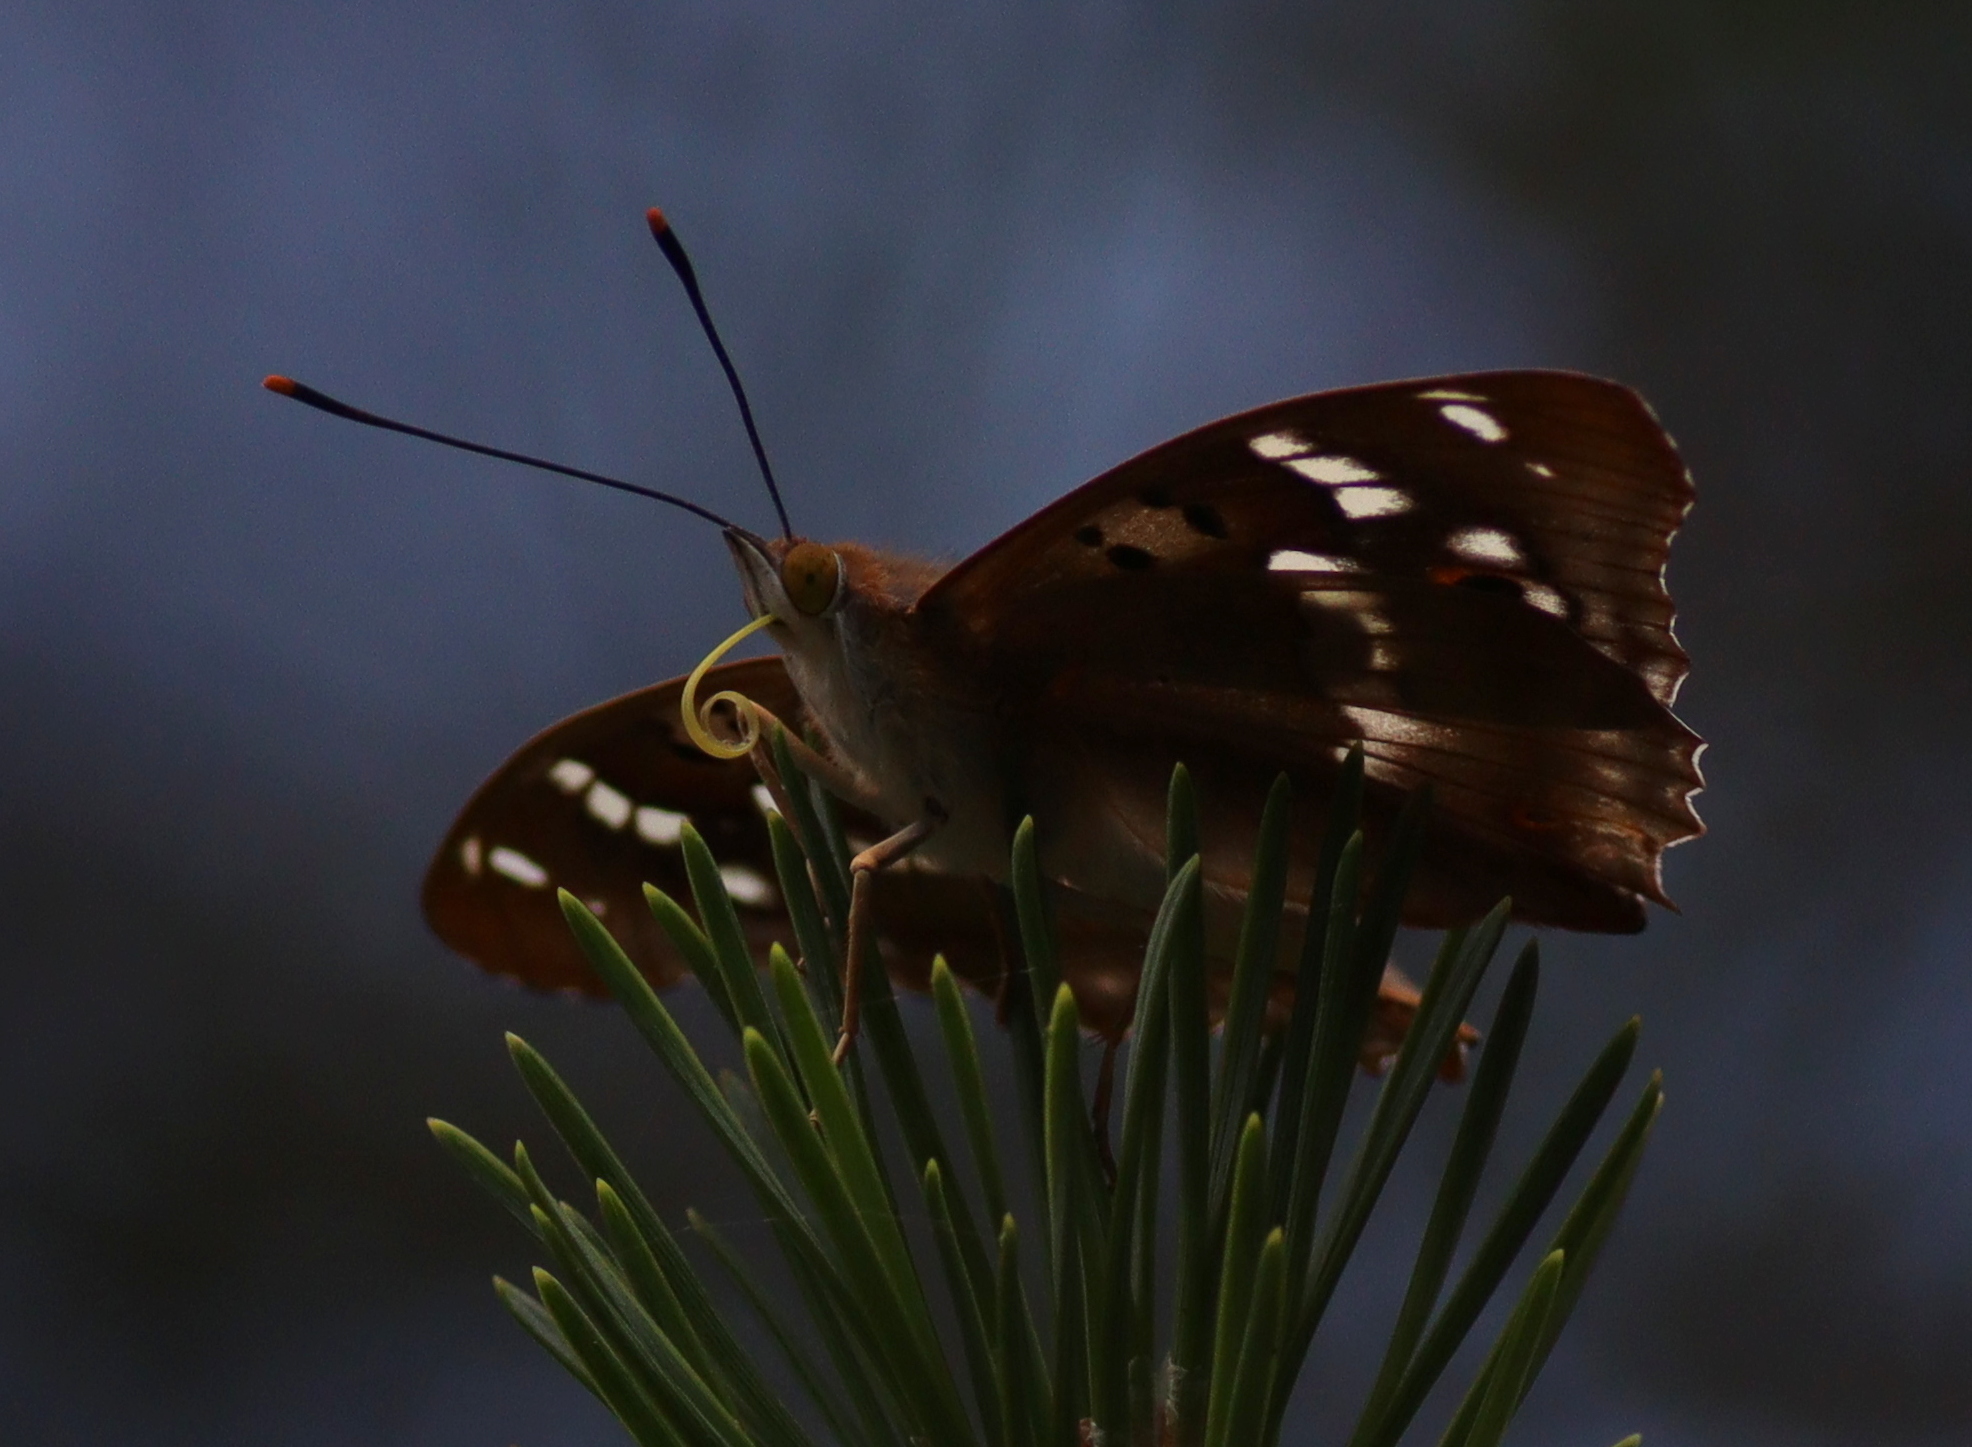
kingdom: Animalia
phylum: Arthropoda
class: Insecta
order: Lepidoptera
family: Nymphalidae
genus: Apatura
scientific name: Apatura ilia
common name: Lesser purple emperor
